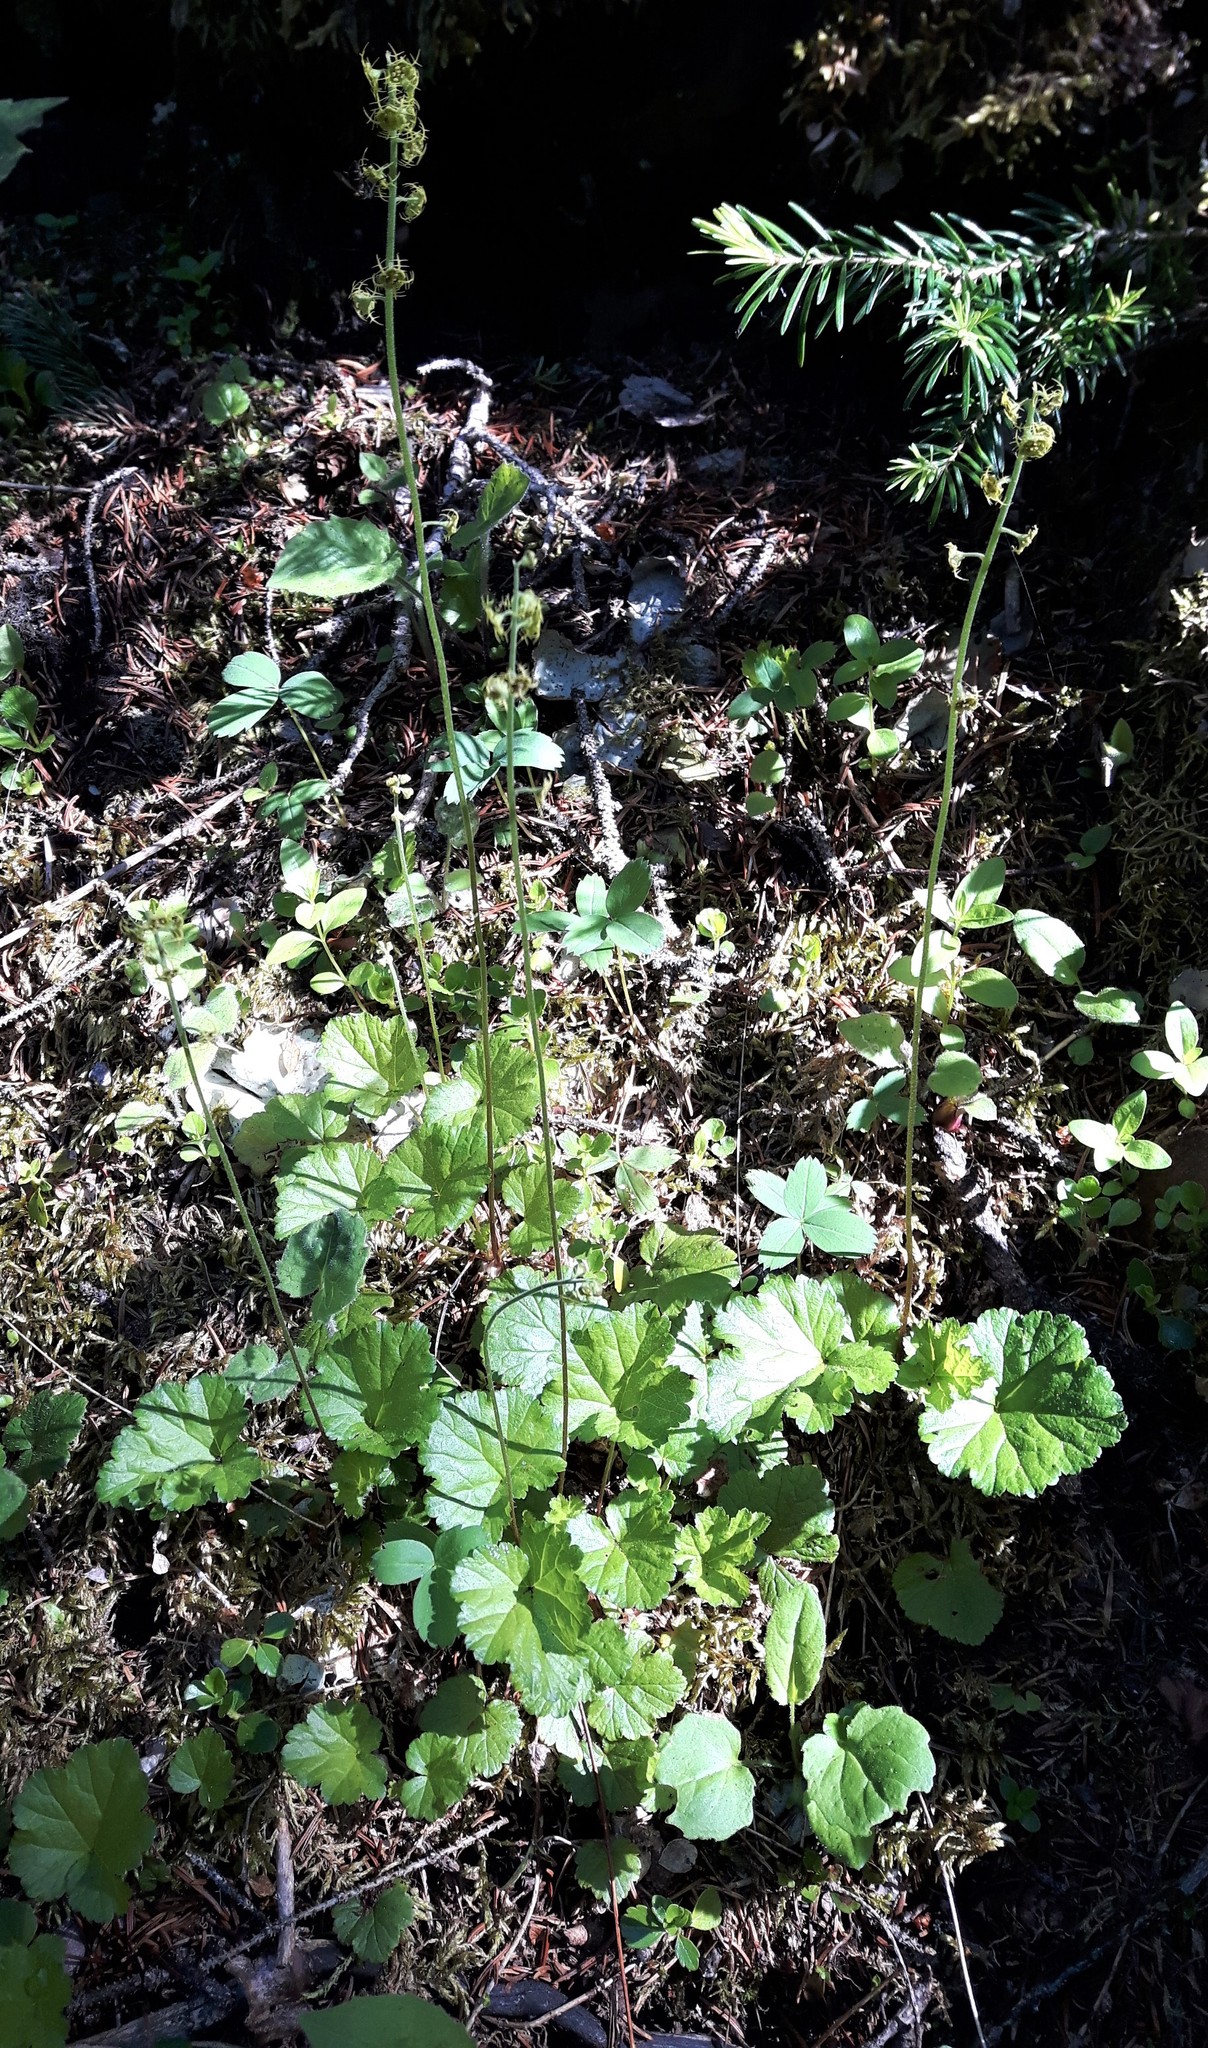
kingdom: Plantae
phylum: Tracheophyta
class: Magnoliopsida
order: Saxifragales
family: Saxifragaceae
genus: Pectiantia
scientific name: Pectiantia pentandra
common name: Alpine bishop's-cap
